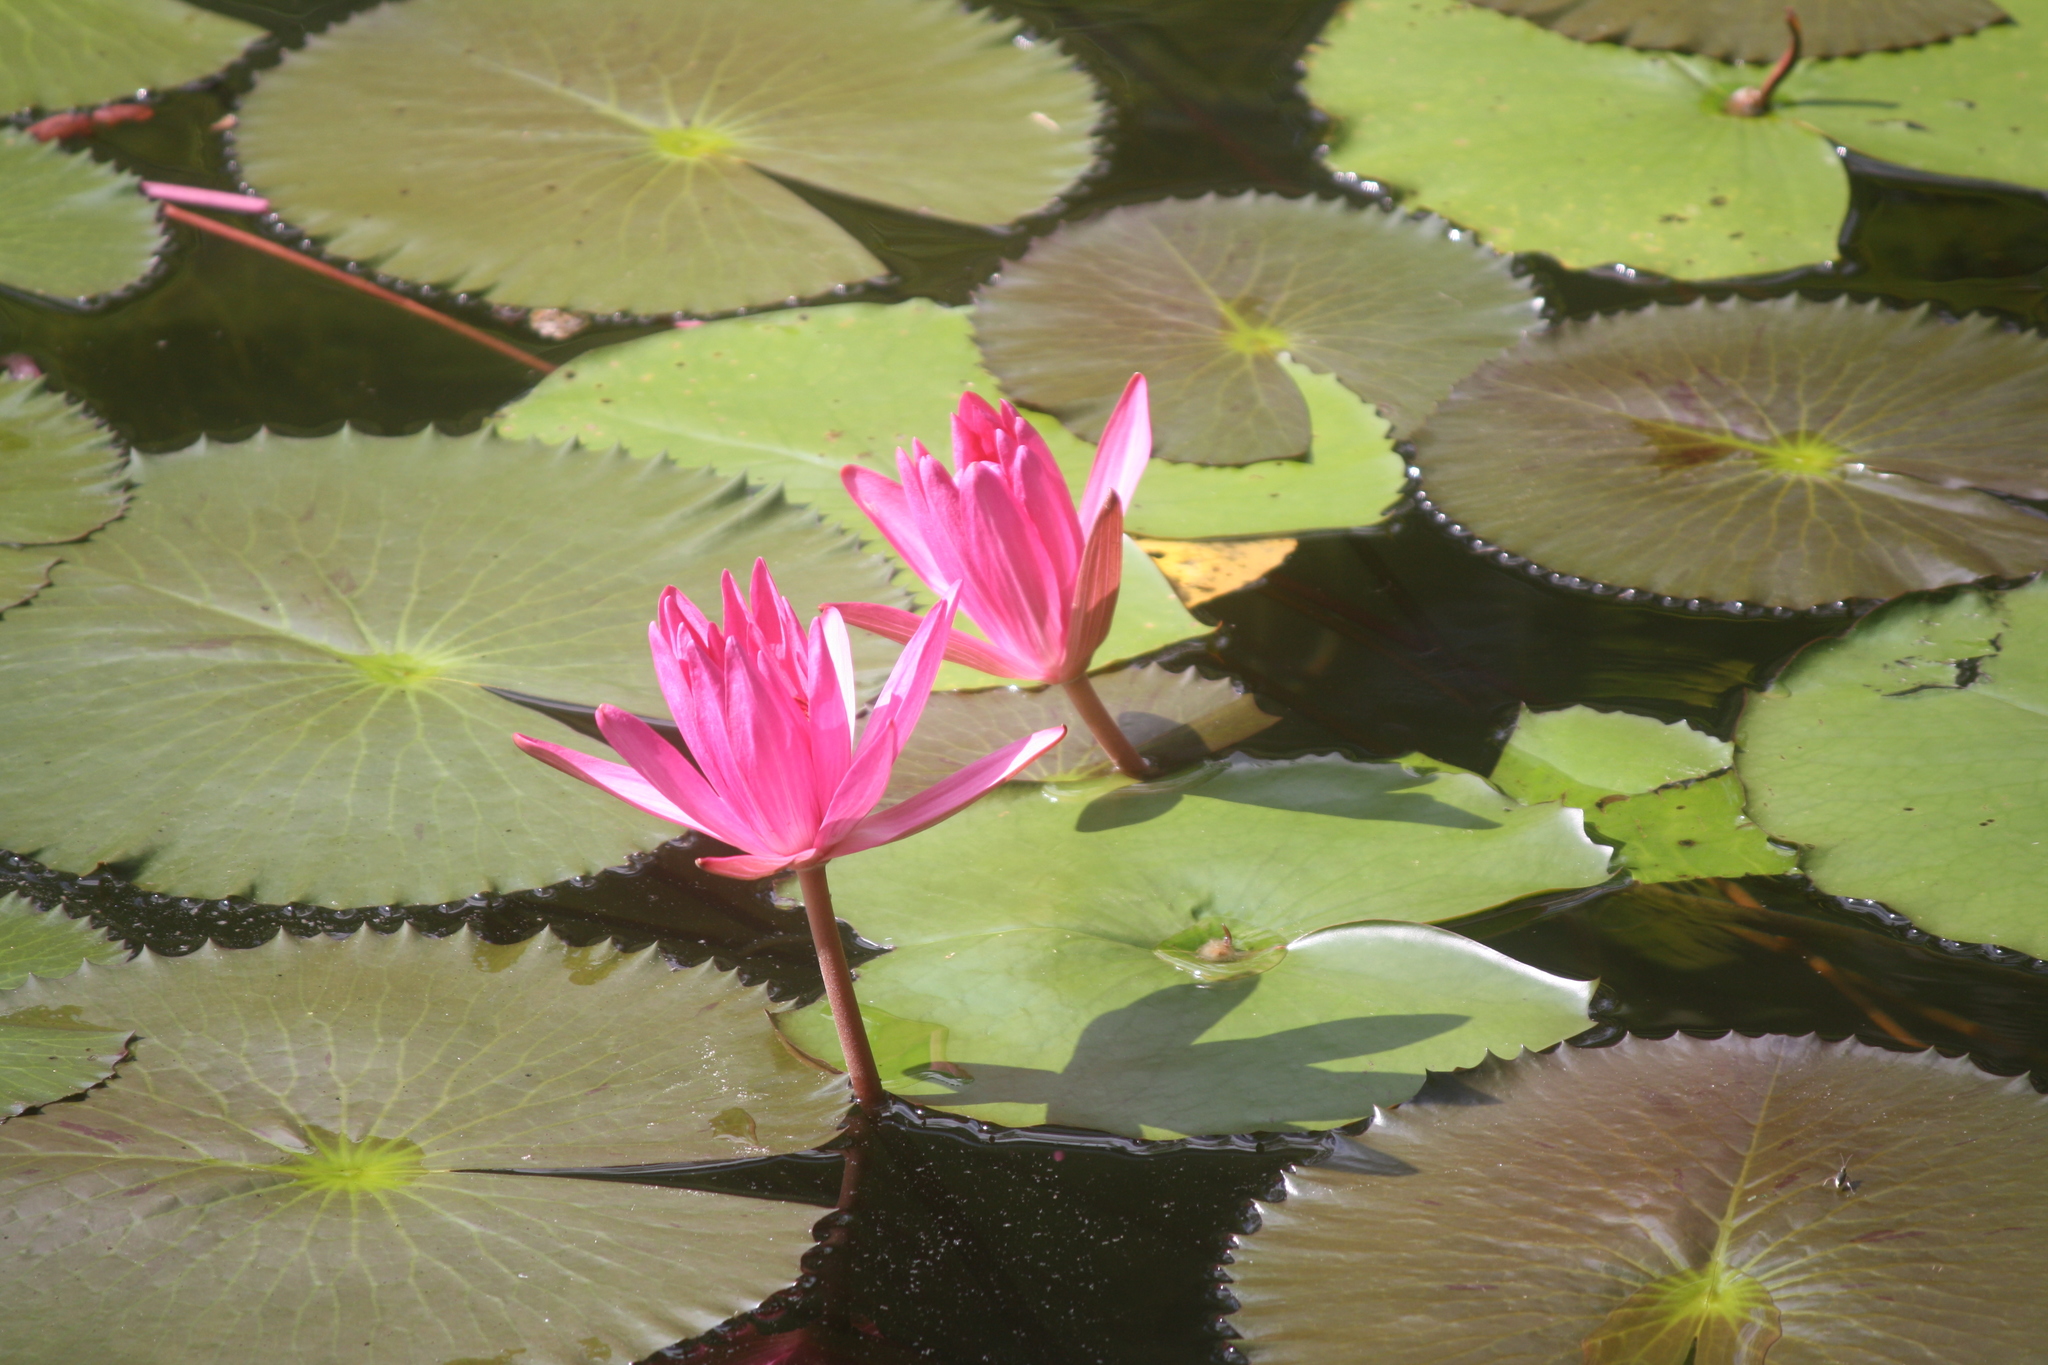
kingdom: Plantae
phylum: Tracheophyta
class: Magnoliopsida
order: Nymphaeales
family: Nymphaeaceae
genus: Nymphaea
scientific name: Nymphaea
